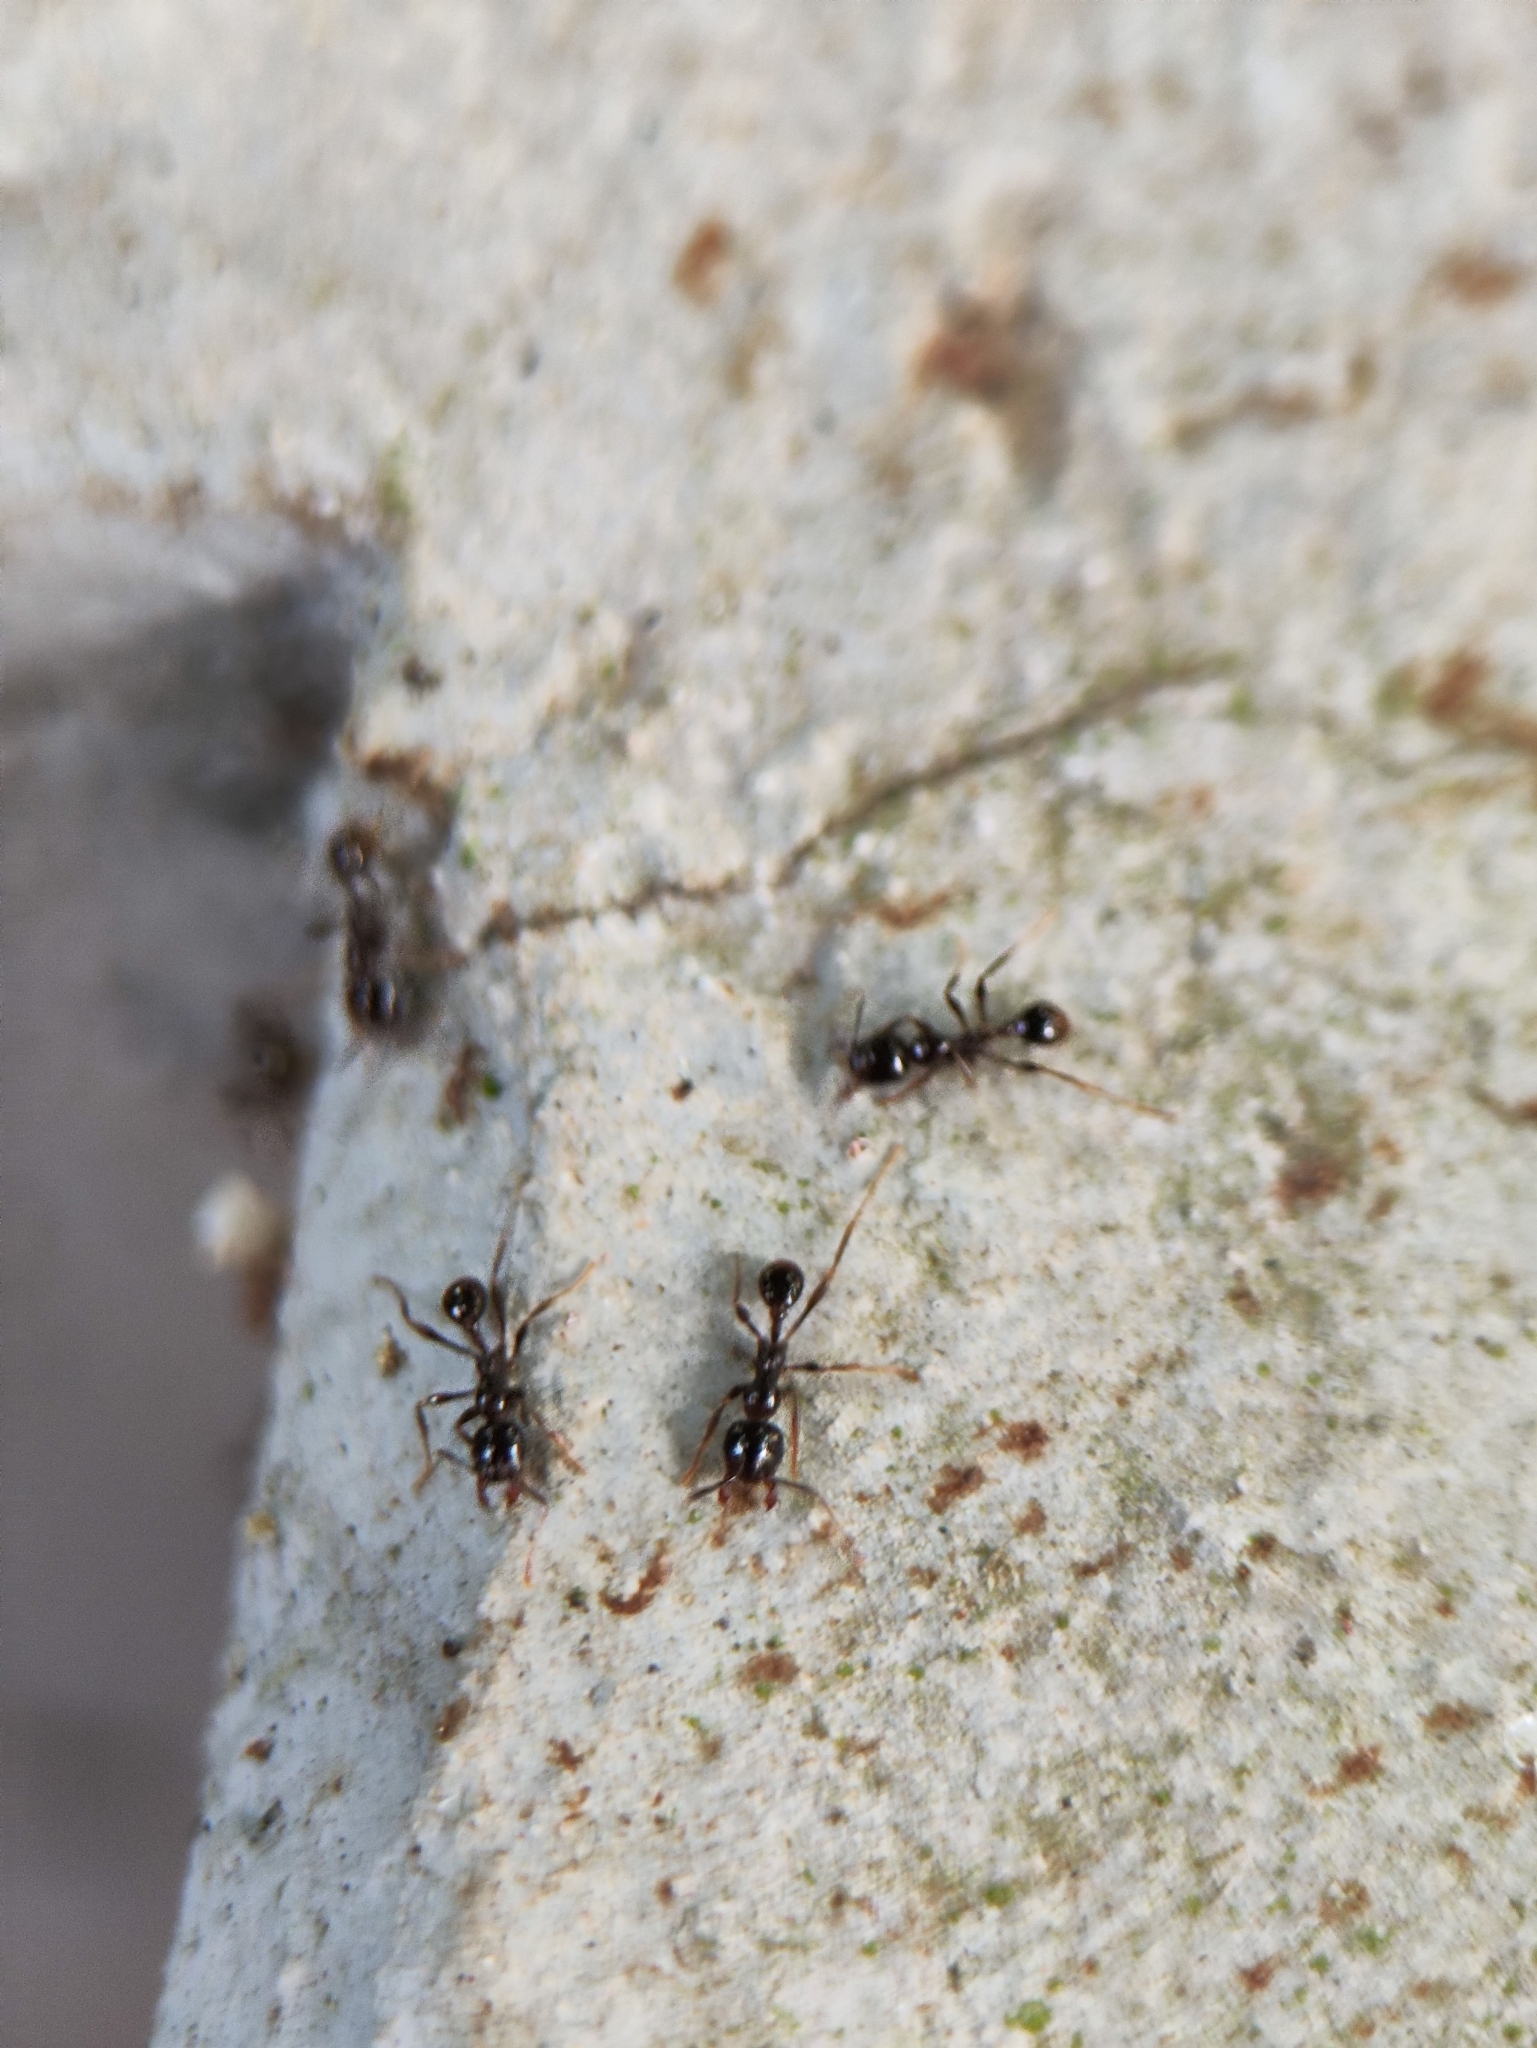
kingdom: Animalia
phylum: Arthropoda
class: Insecta
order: Hymenoptera
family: Formicidae
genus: Pheidologeton
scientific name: Pheidologeton diversus
